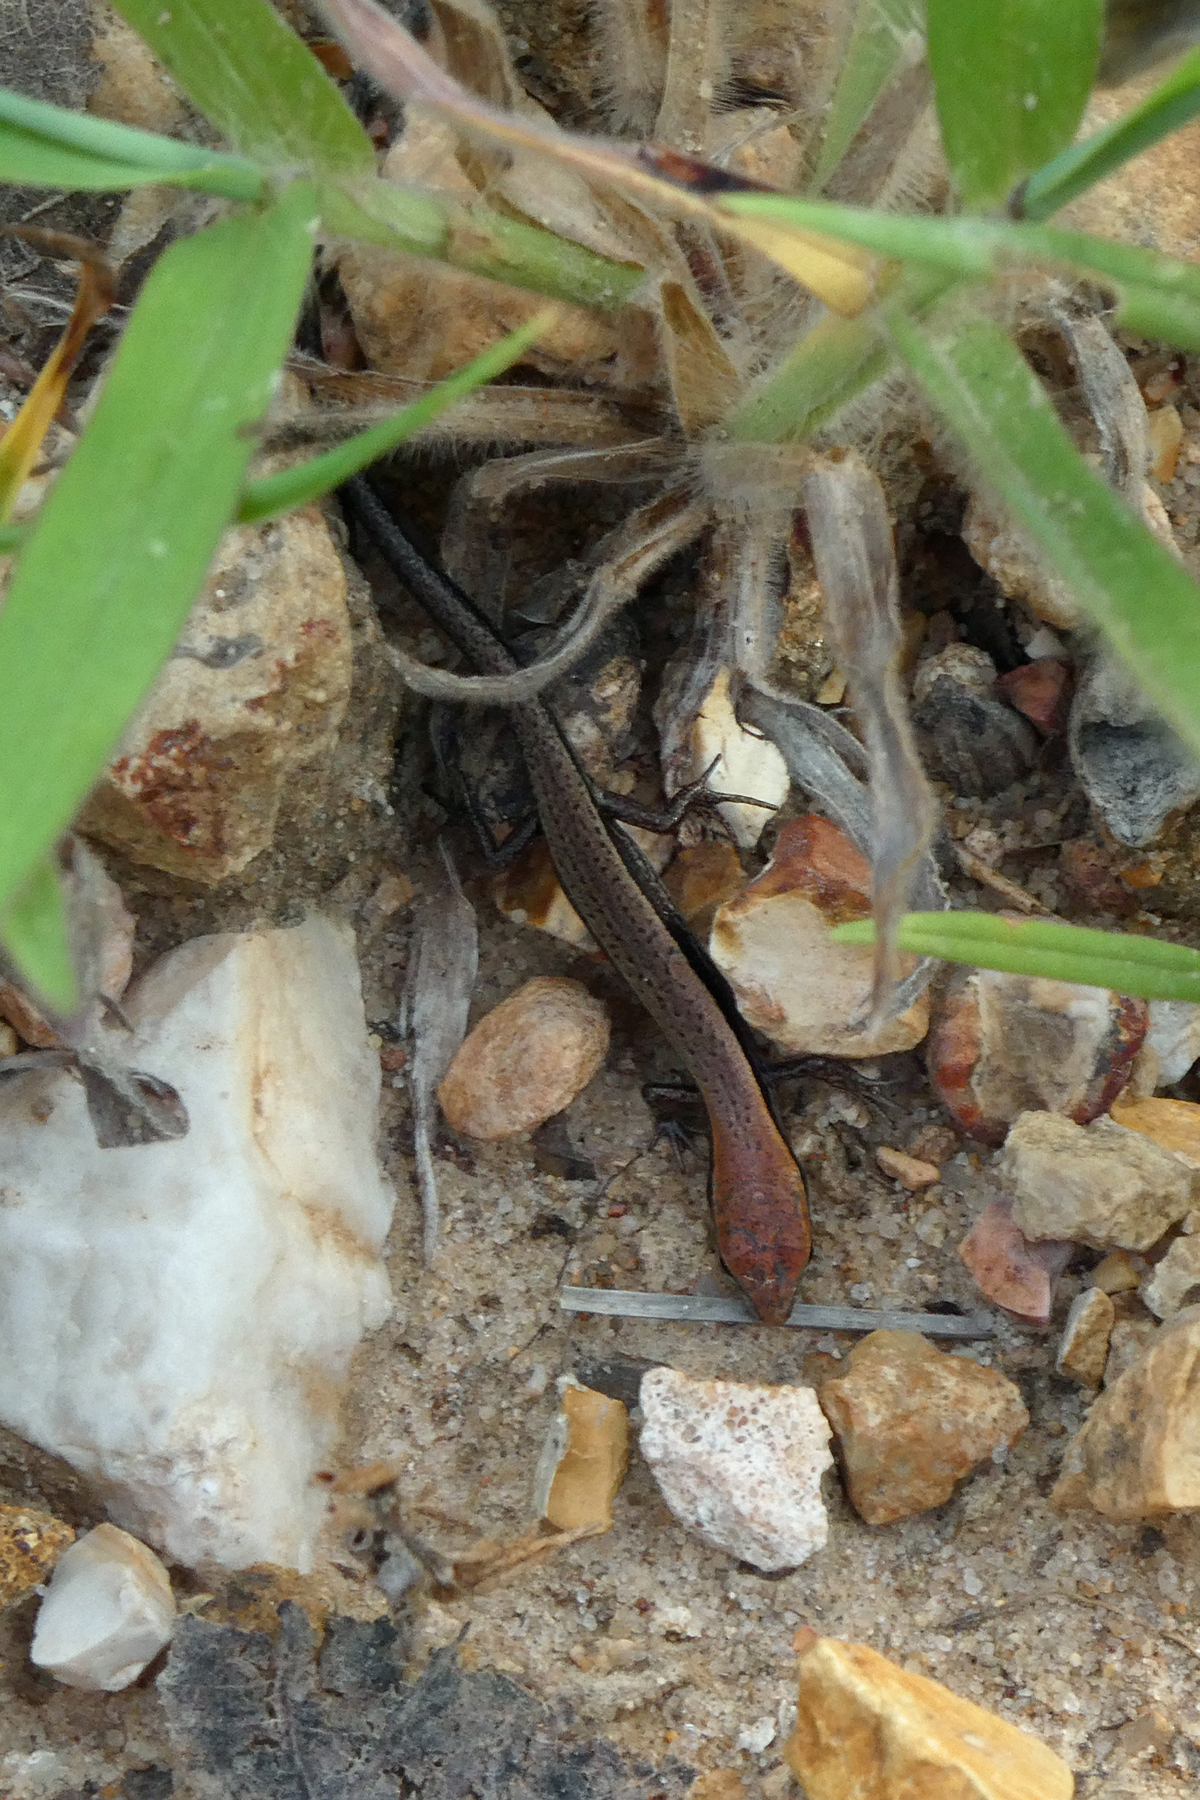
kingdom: Animalia
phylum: Chordata
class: Squamata
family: Scincidae
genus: Scincella
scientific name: Scincella lateralis
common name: Ground skink
